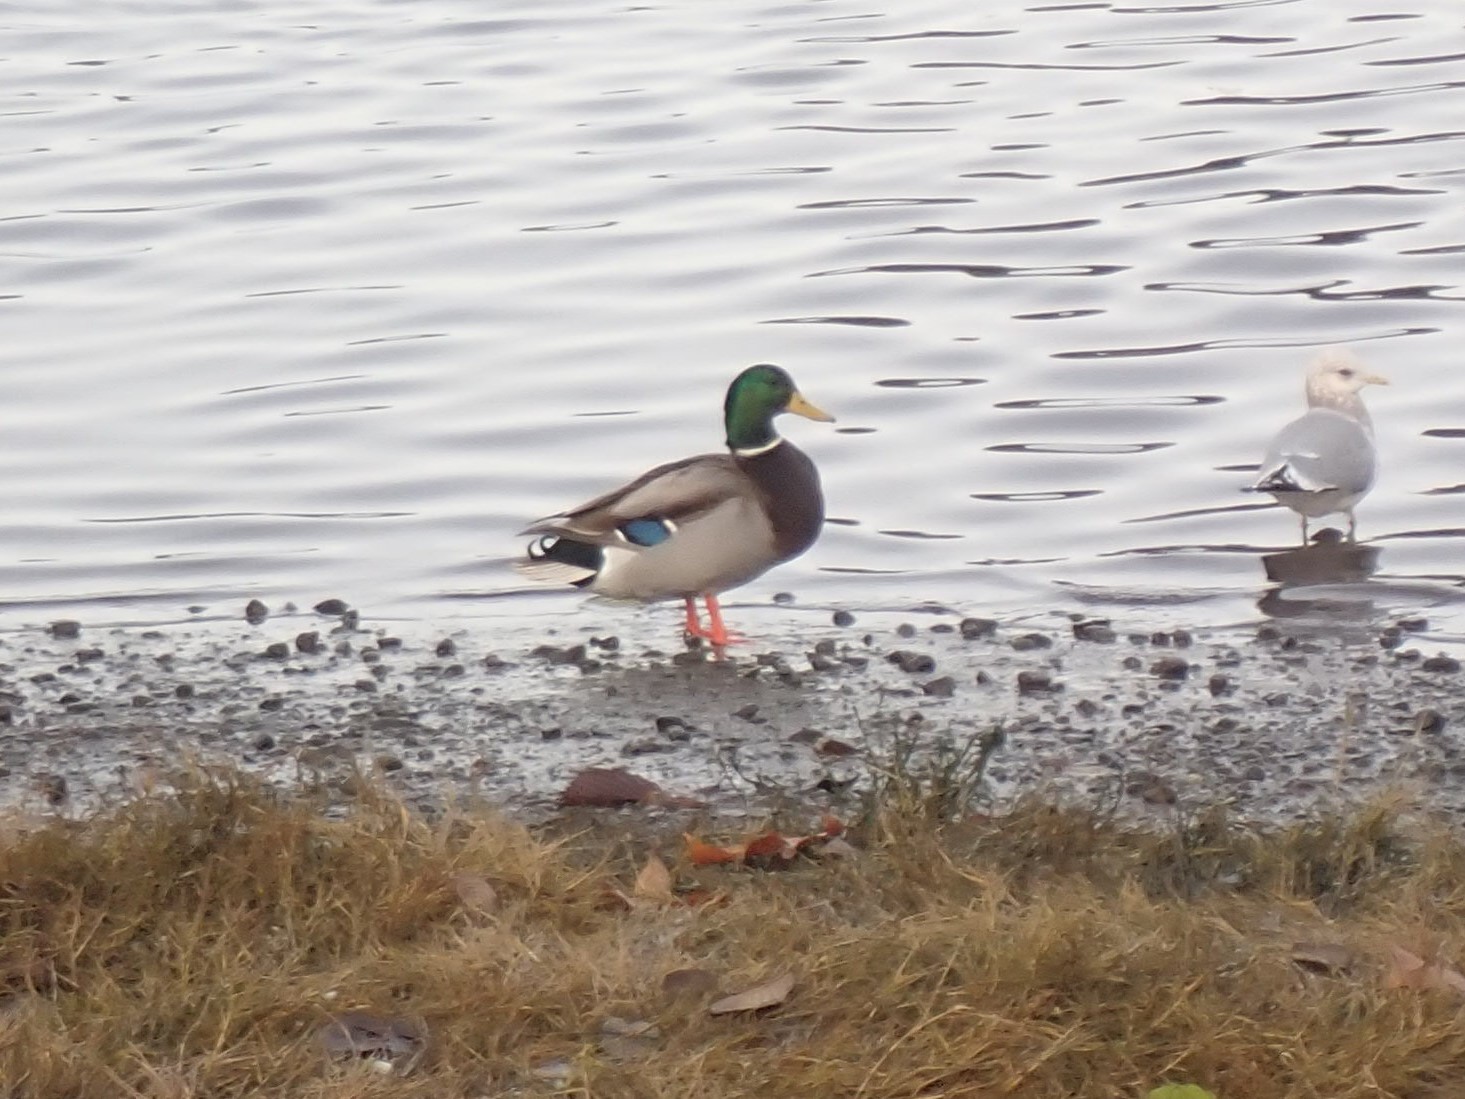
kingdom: Animalia
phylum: Chordata
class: Aves
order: Anseriformes
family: Anatidae
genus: Anas
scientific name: Anas platyrhynchos
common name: Mallard
